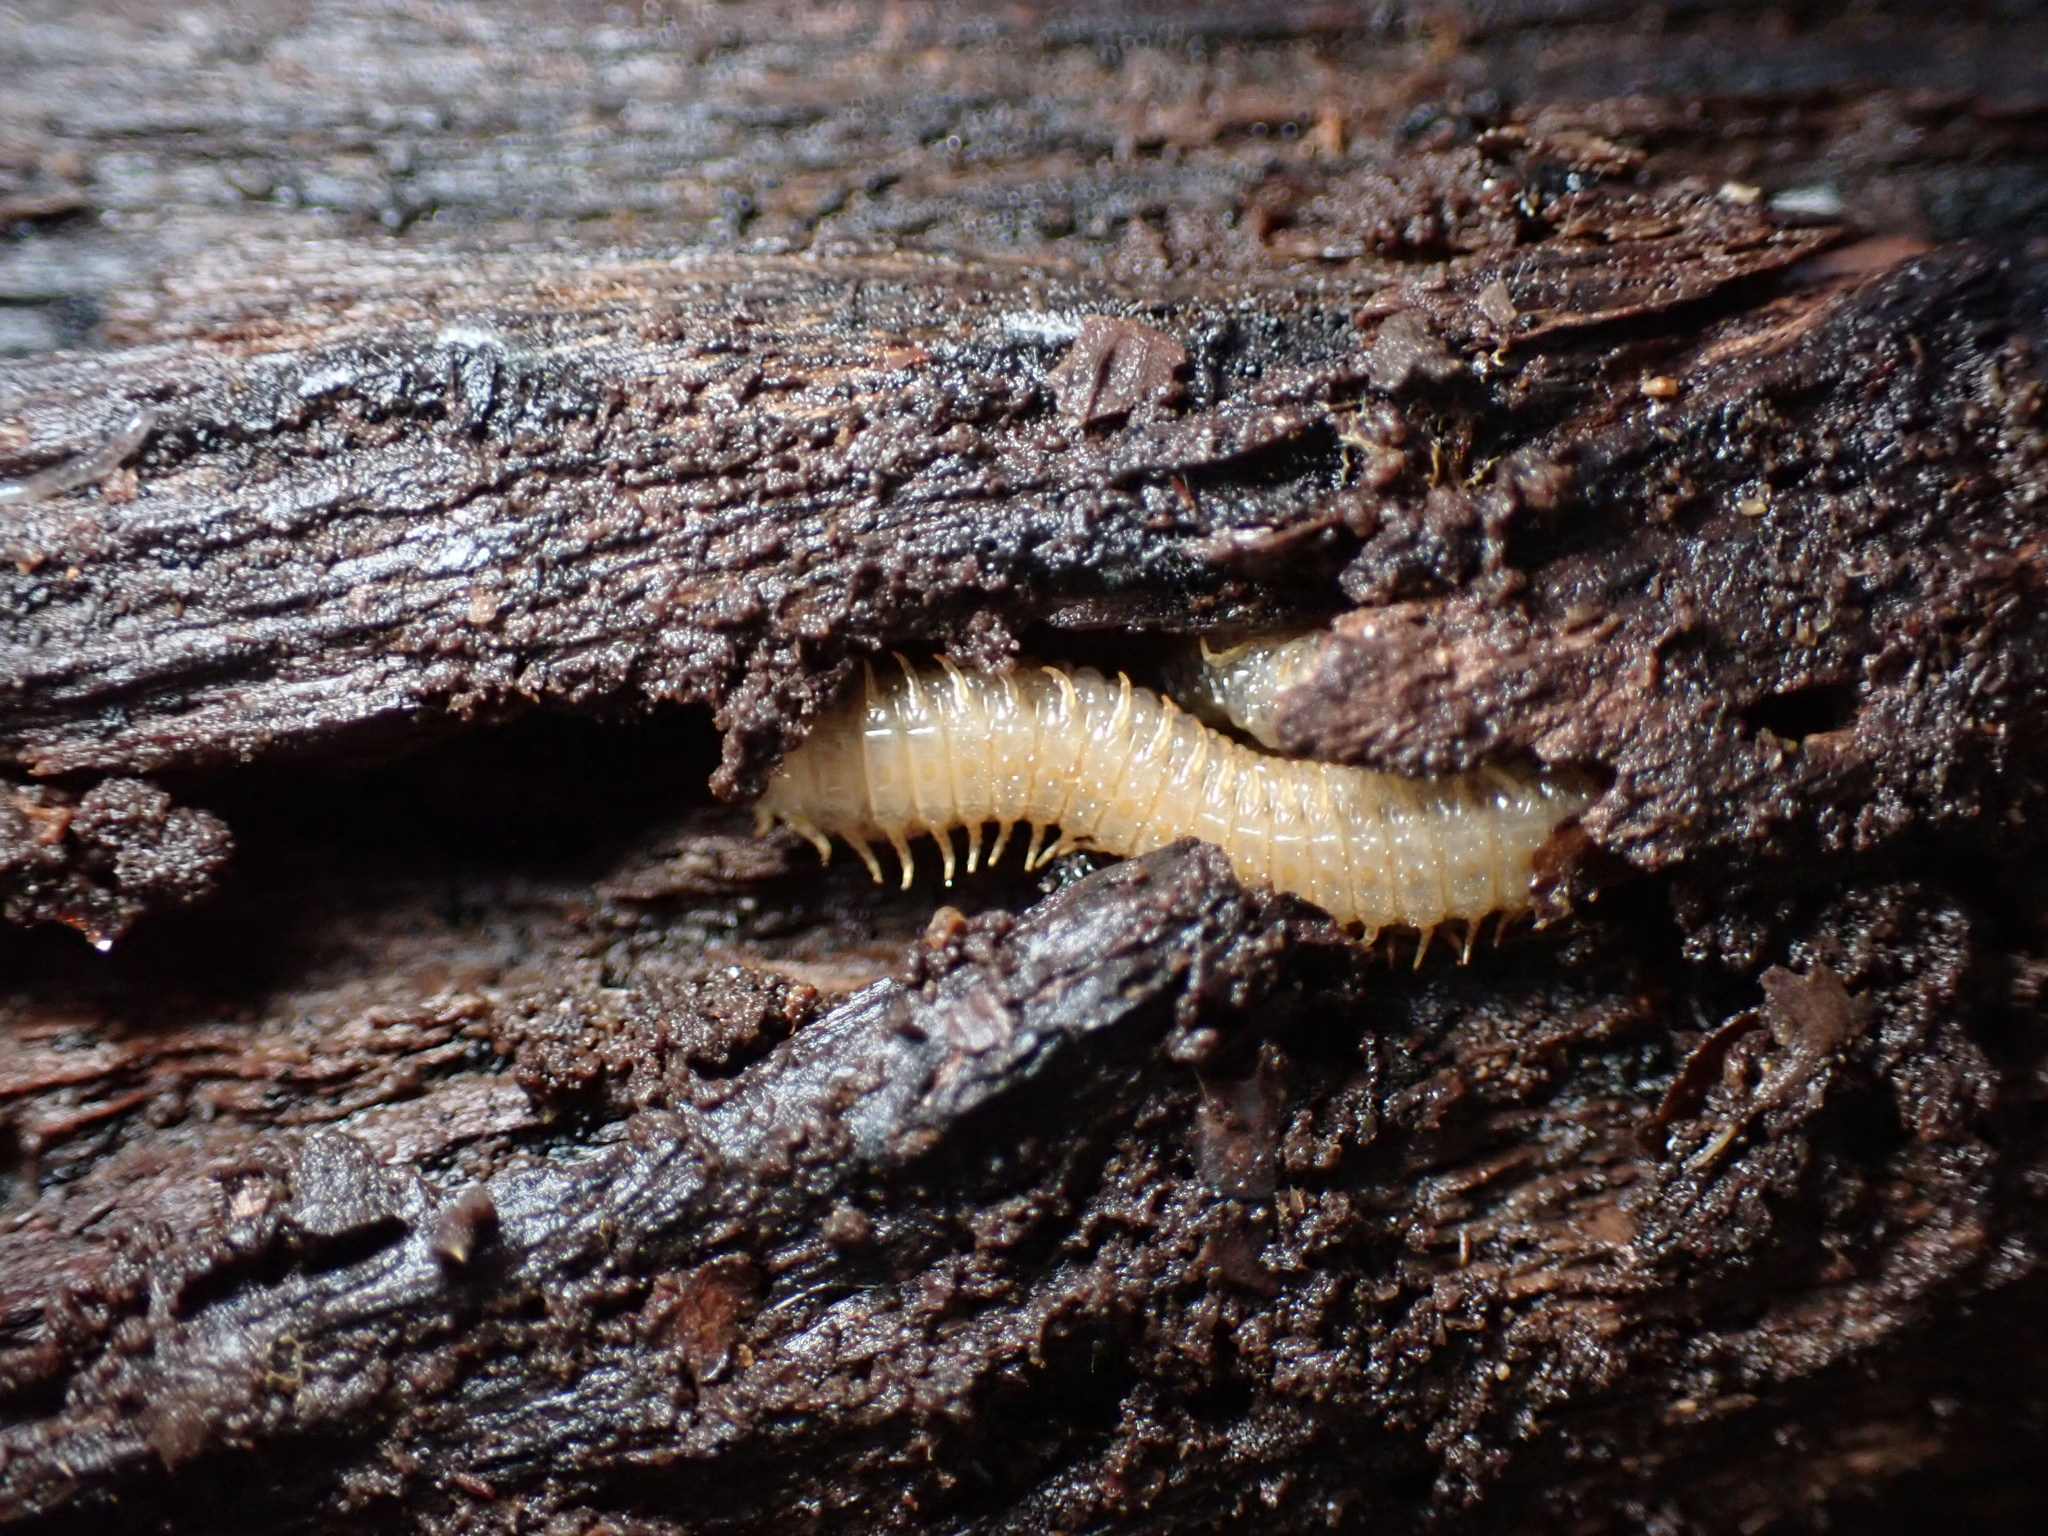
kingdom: Animalia
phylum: Arthropoda
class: Chilopoda
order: Geophilomorpha
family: Dignathodontidae
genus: Henia
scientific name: Henia vesuviana
